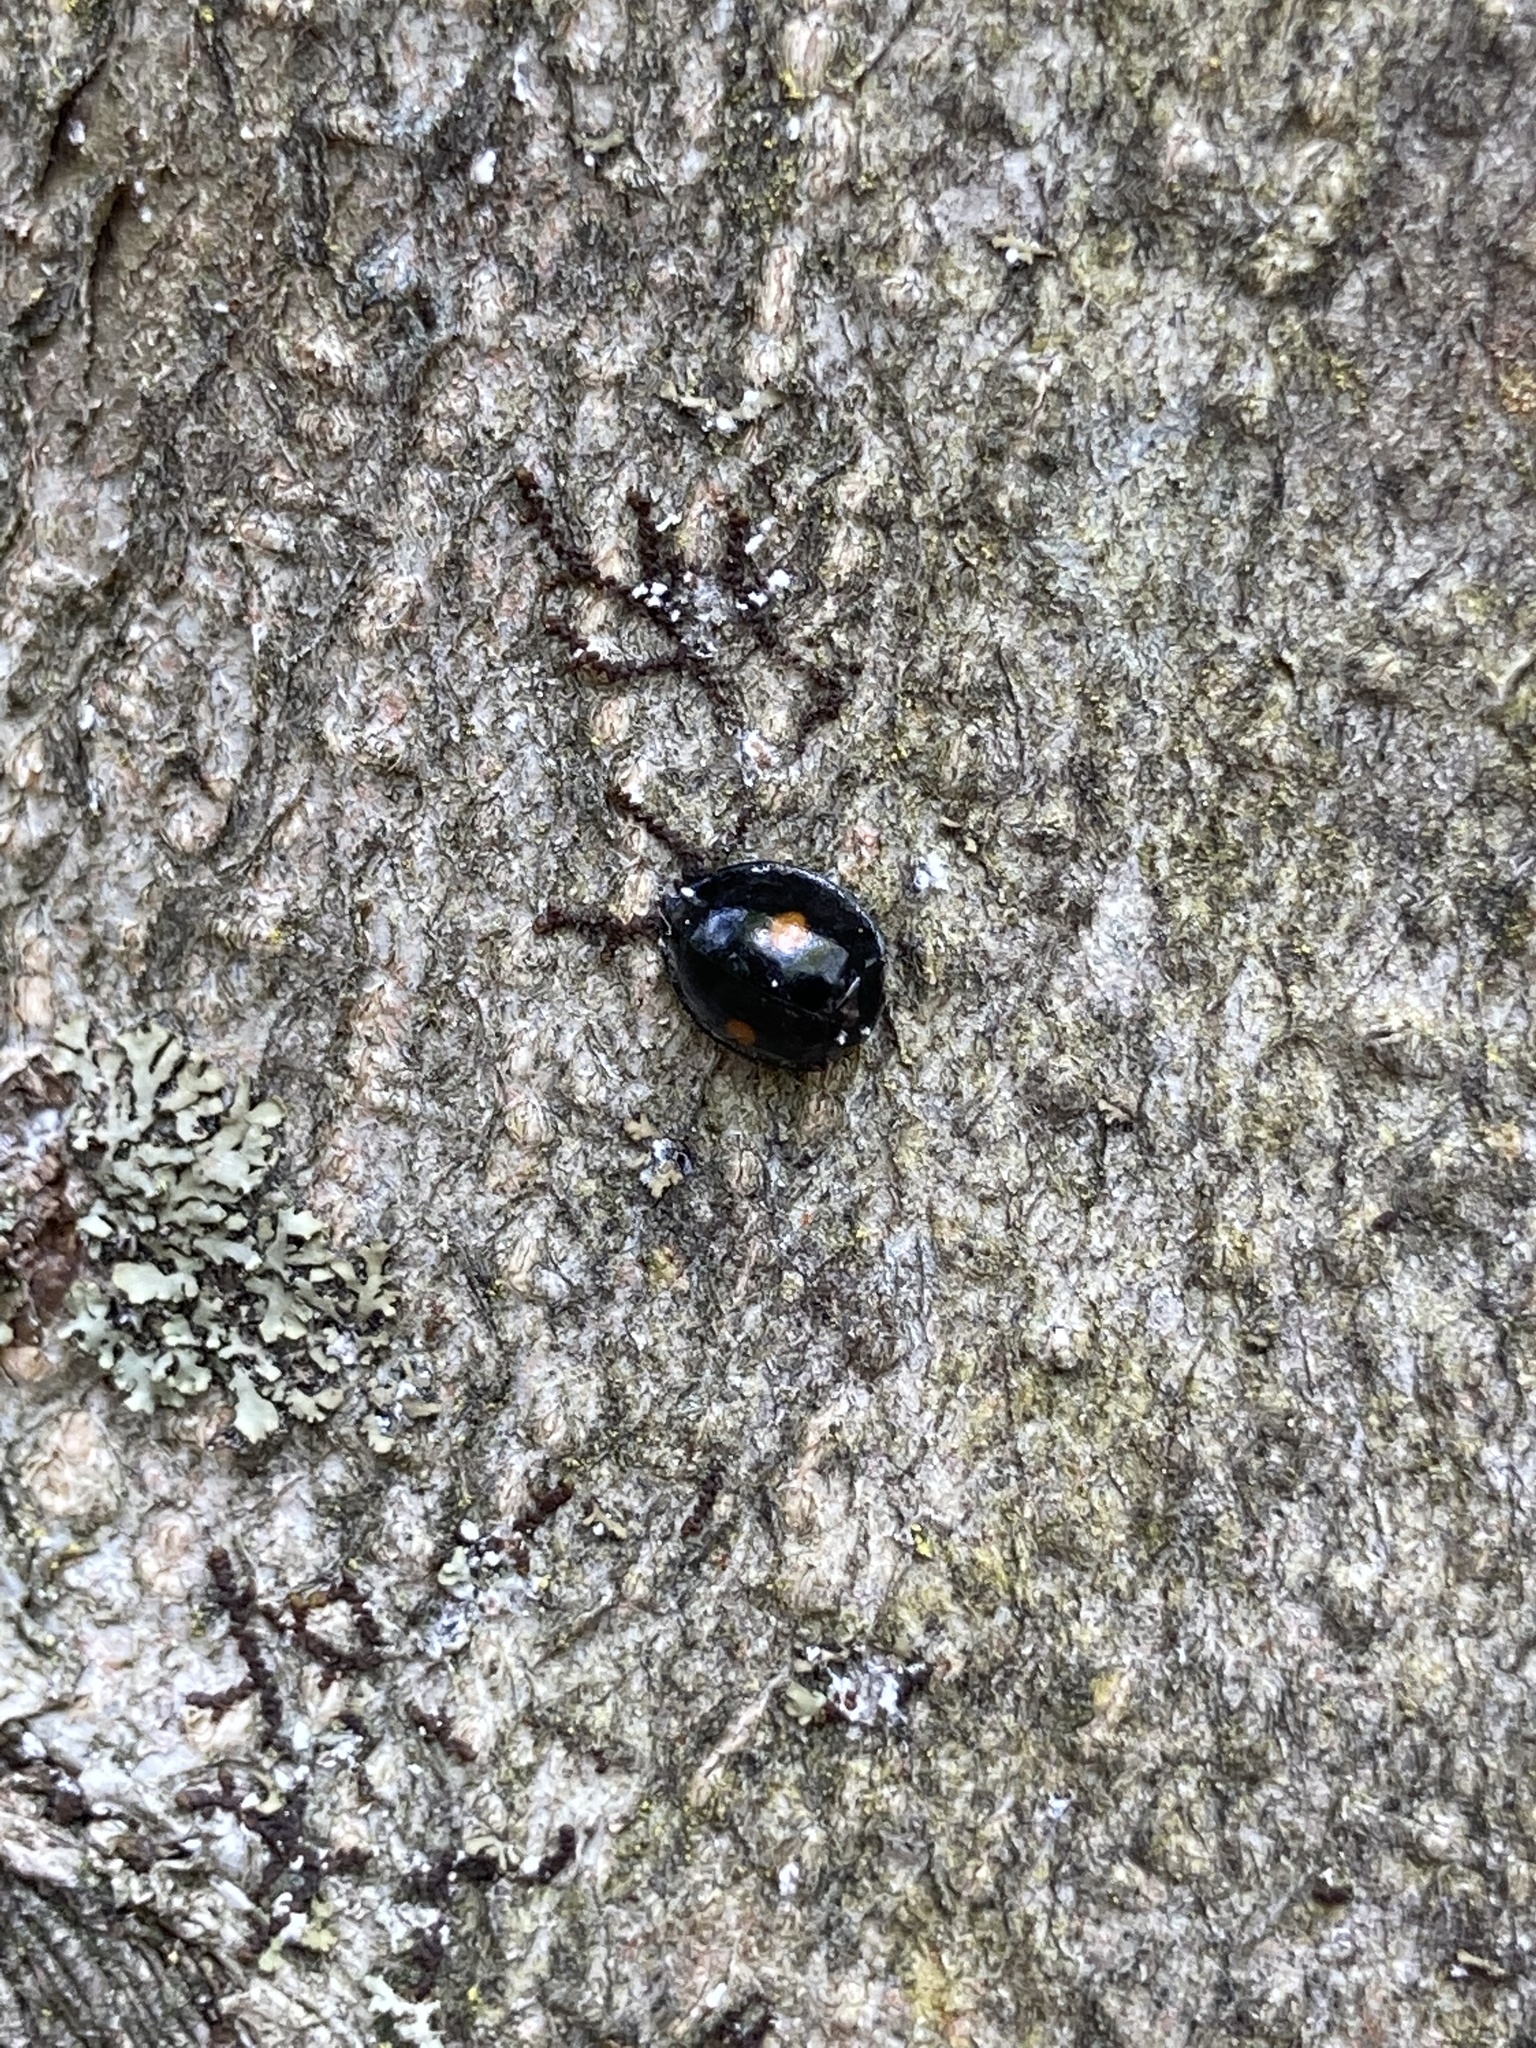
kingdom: Animalia
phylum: Arthropoda
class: Insecta
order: Coleoptera
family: Coccinellidae
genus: Chilocorus
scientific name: Chilocorus stigma
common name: Twicestabbed lady beetle
